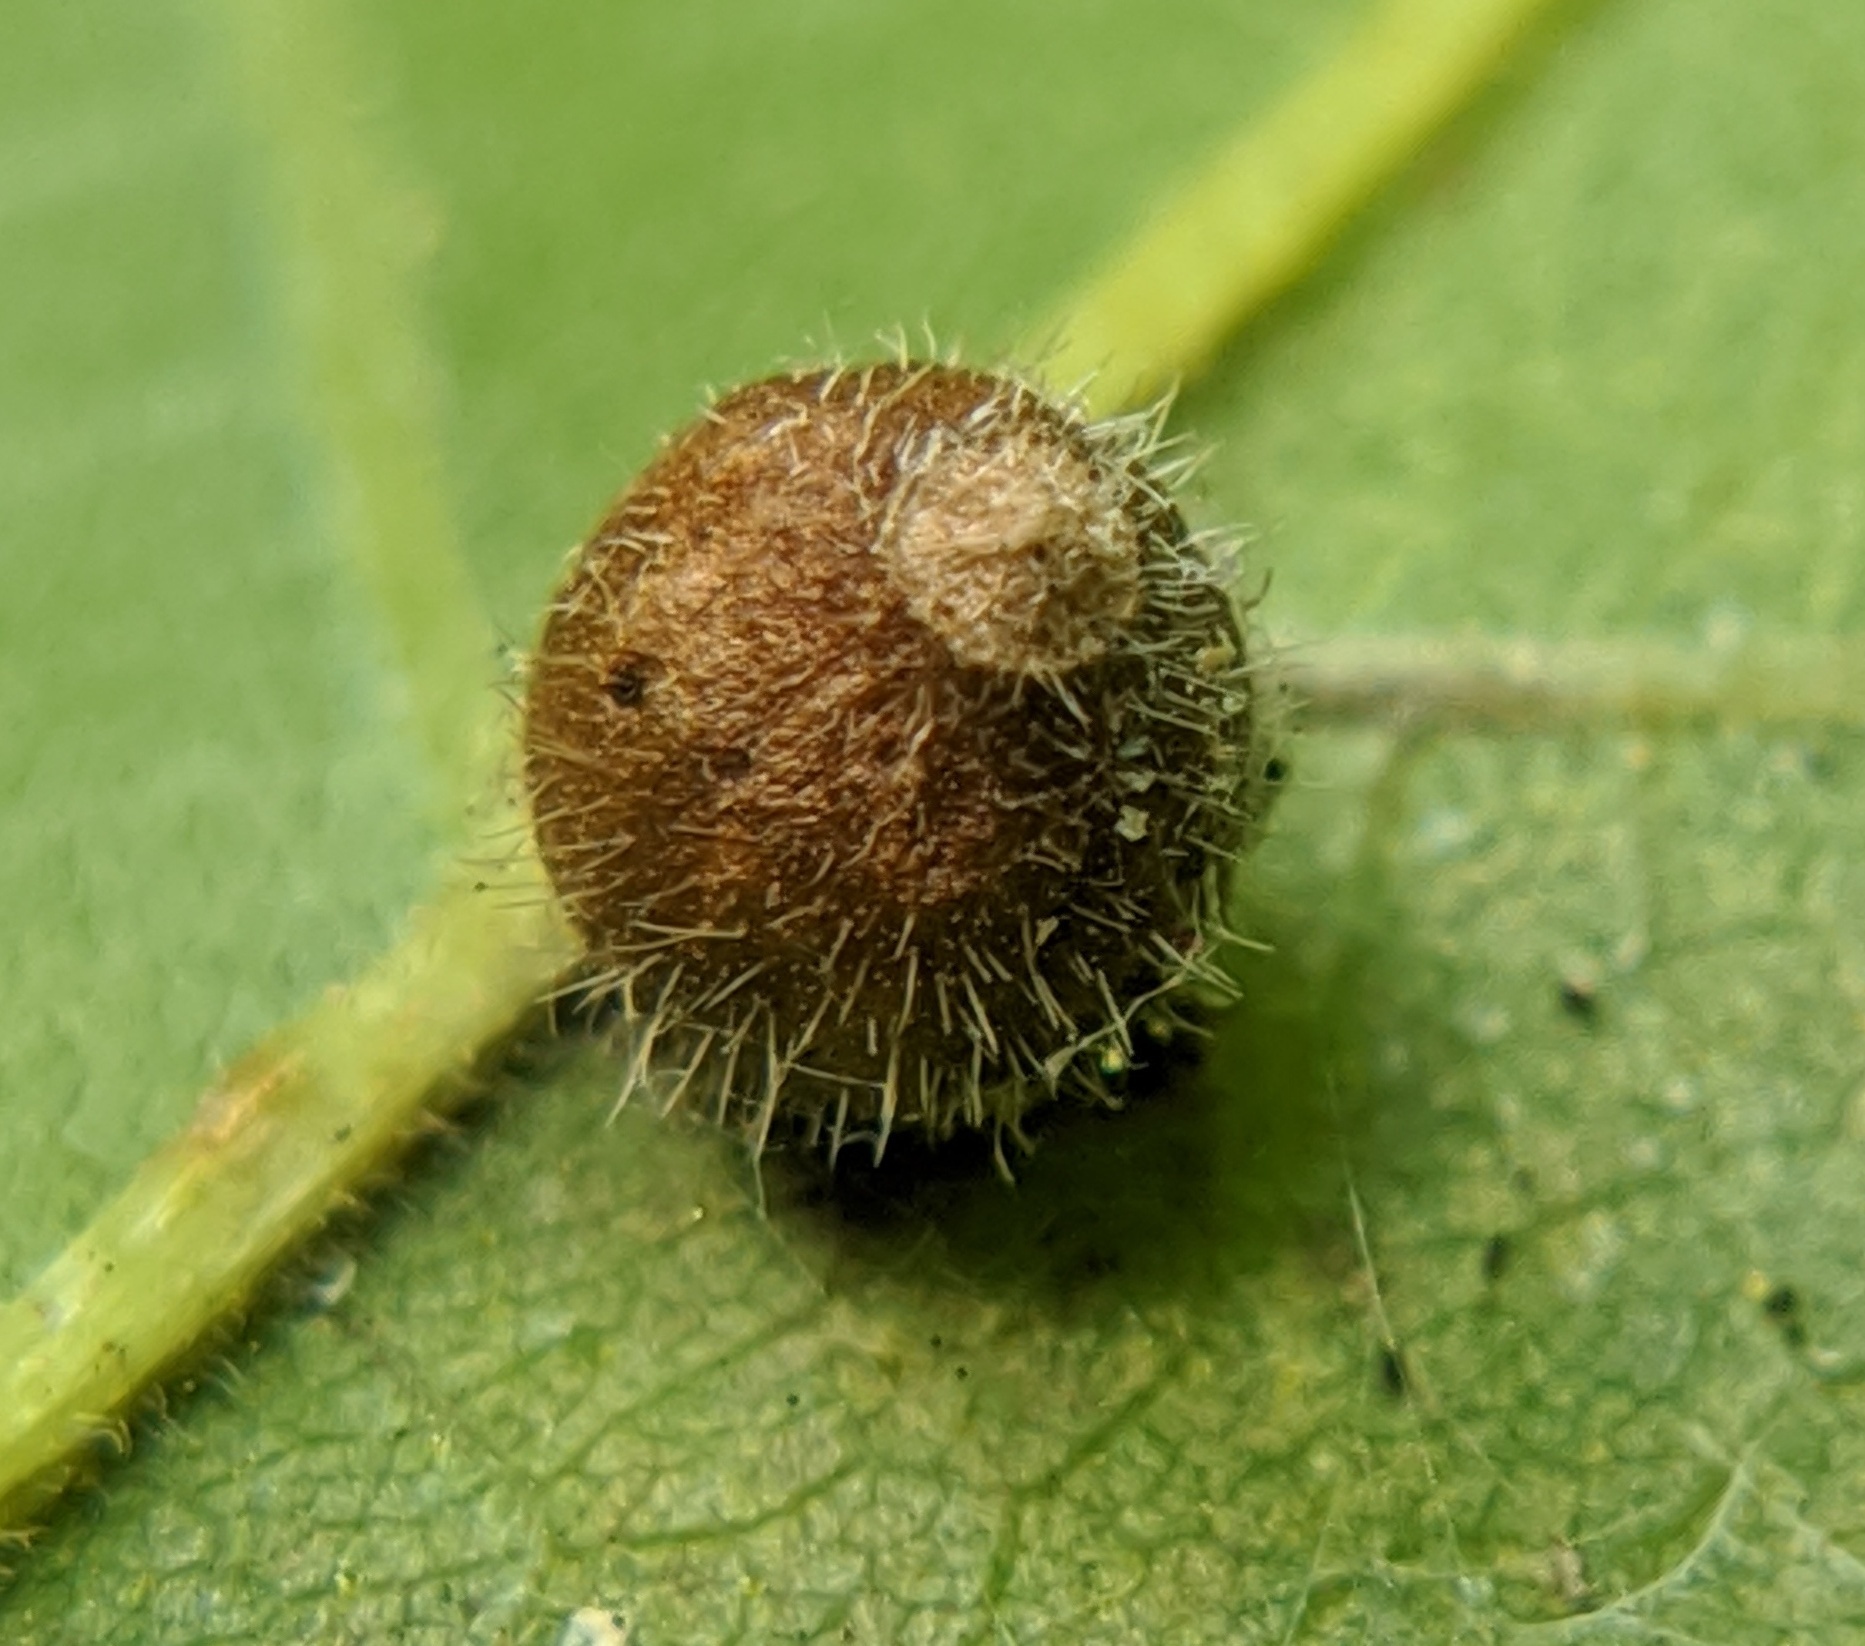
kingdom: Animalia
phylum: Arthropoda
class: Insecta
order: Diptera
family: Cecidomyiidae
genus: Caryomyia
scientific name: Caryomyia cilidolium
